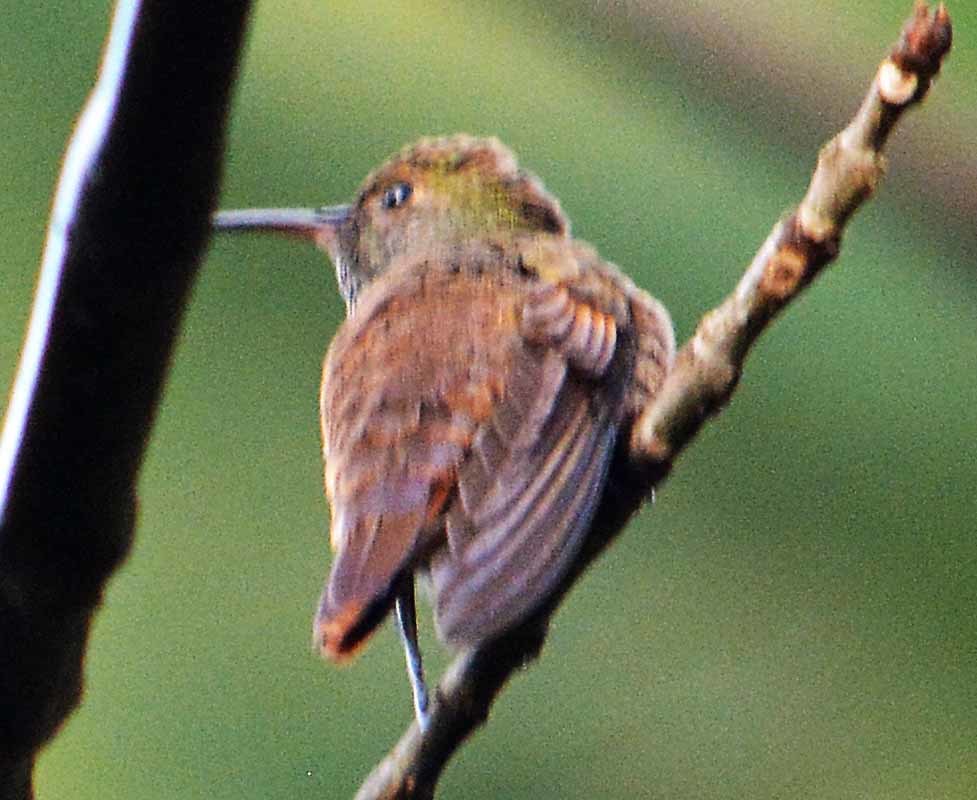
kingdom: Animalia
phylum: Chordata
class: Aves
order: Apodiformes
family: Trochilidae
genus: Saucerottia
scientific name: Saucerottia beryllina
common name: Berylline hummingbird
